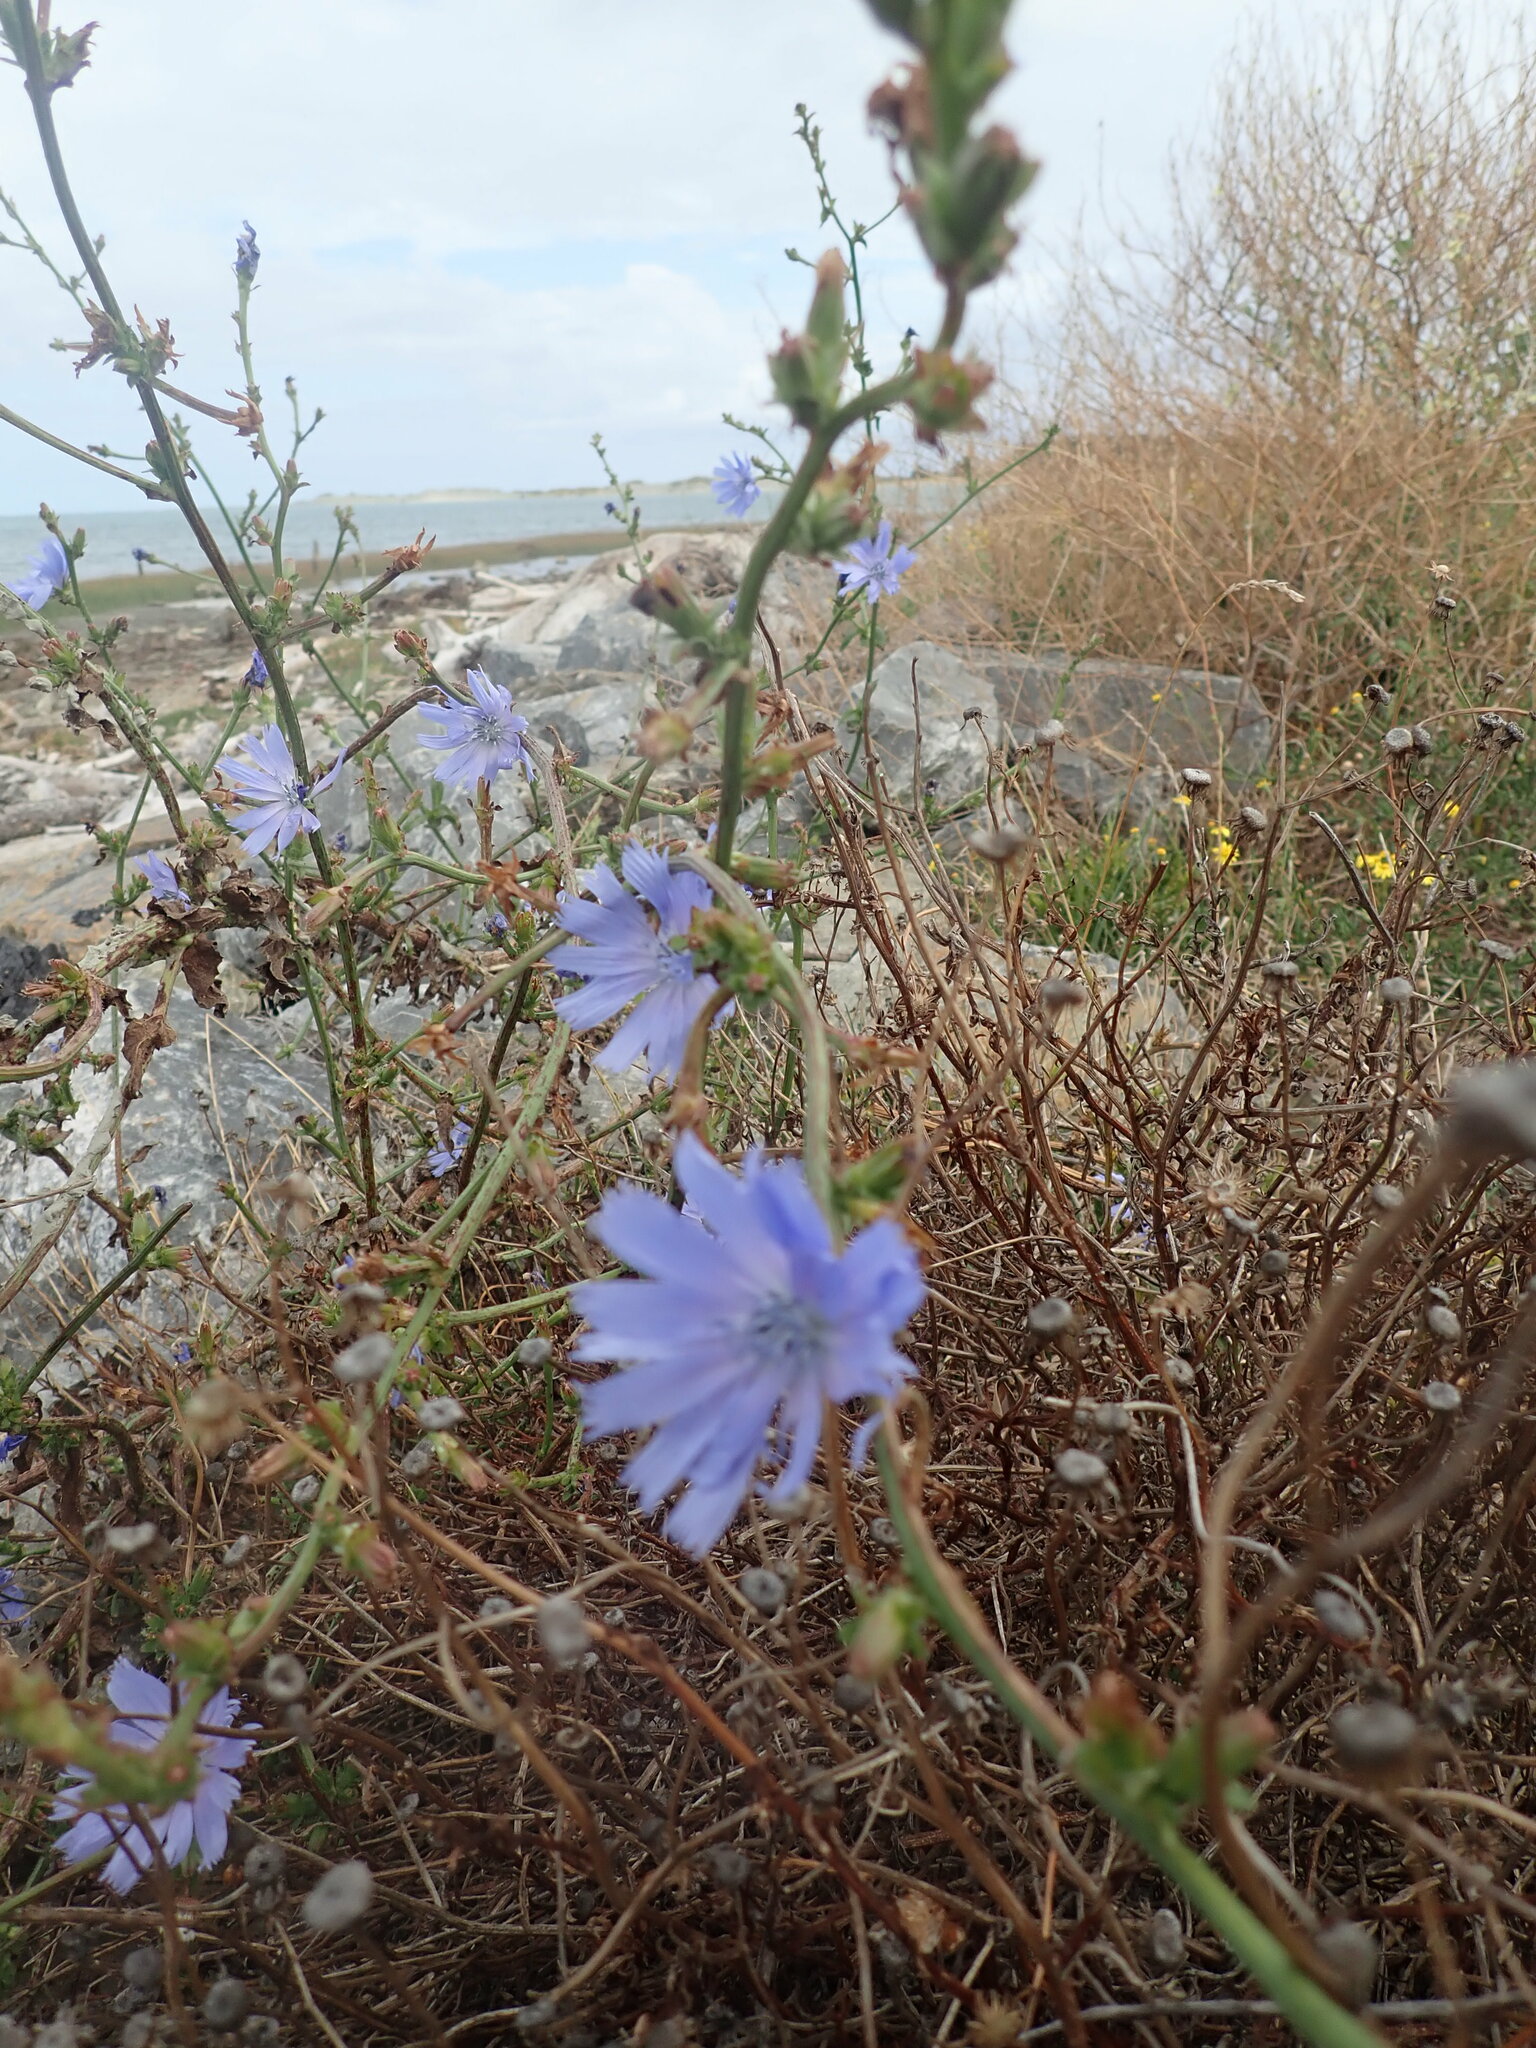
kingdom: Plantae
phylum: Tracheophyta
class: Magnoliopsida
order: Asterales
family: Asteraceae
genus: Cichorium
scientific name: Cichorium intybus
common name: Chicory
